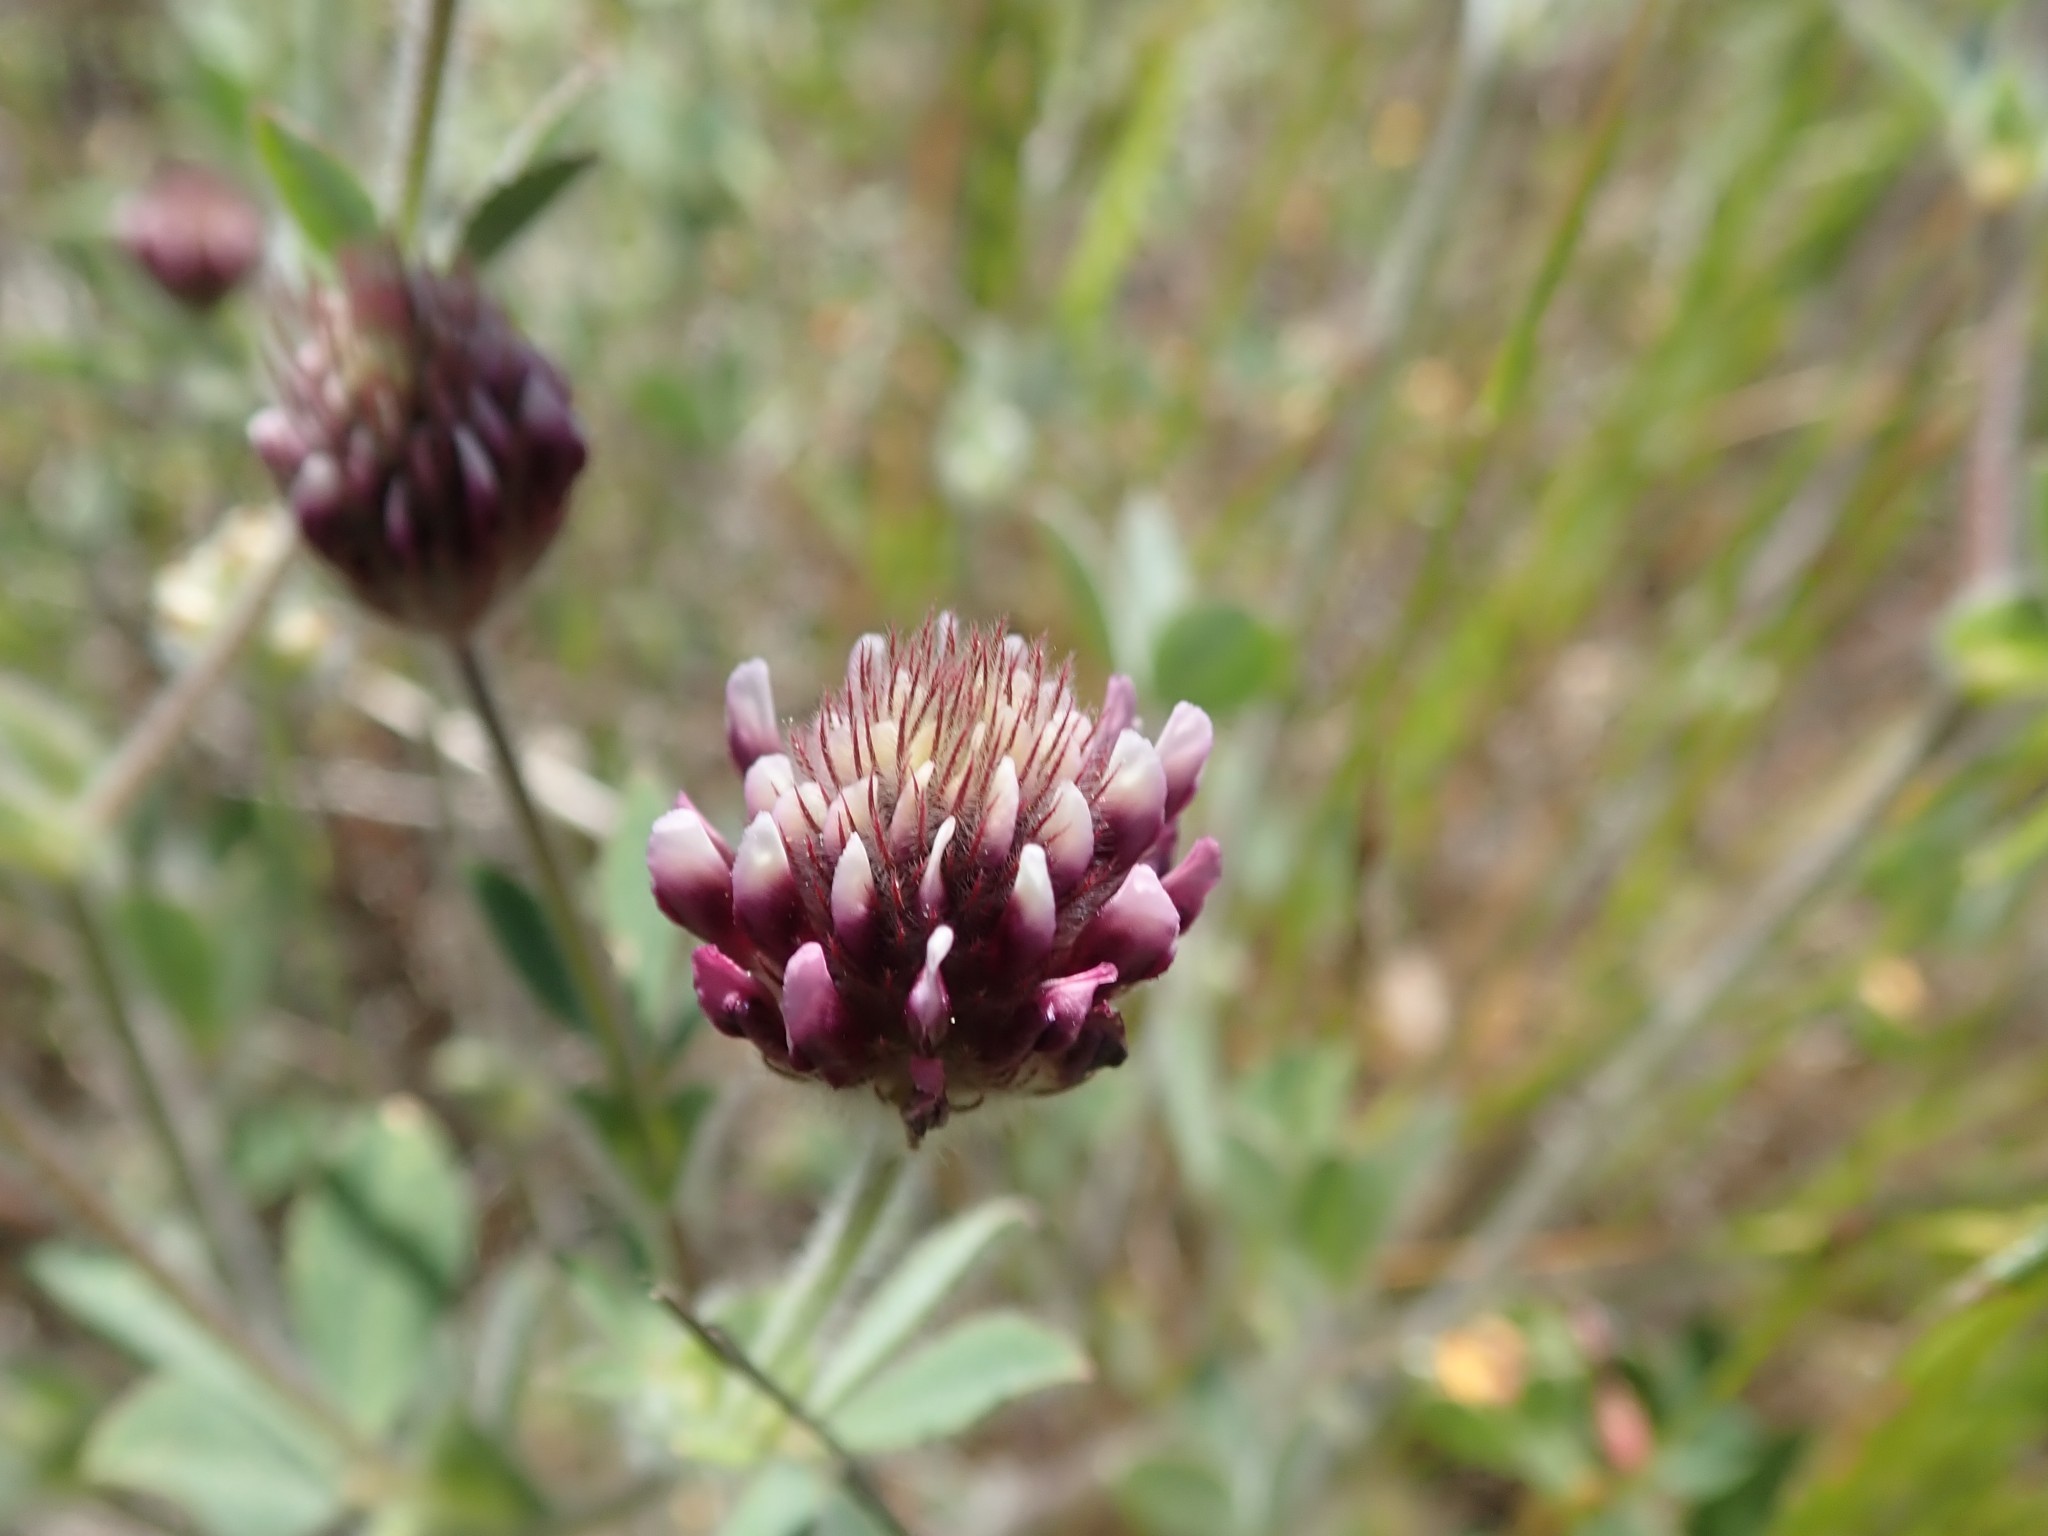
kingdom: Plantae
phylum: Tracheophyta
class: Magnoliopsida
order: Fabales
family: Fabaceae
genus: Trifolium
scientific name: Trifolium dichotomum
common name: Branched indian clover
